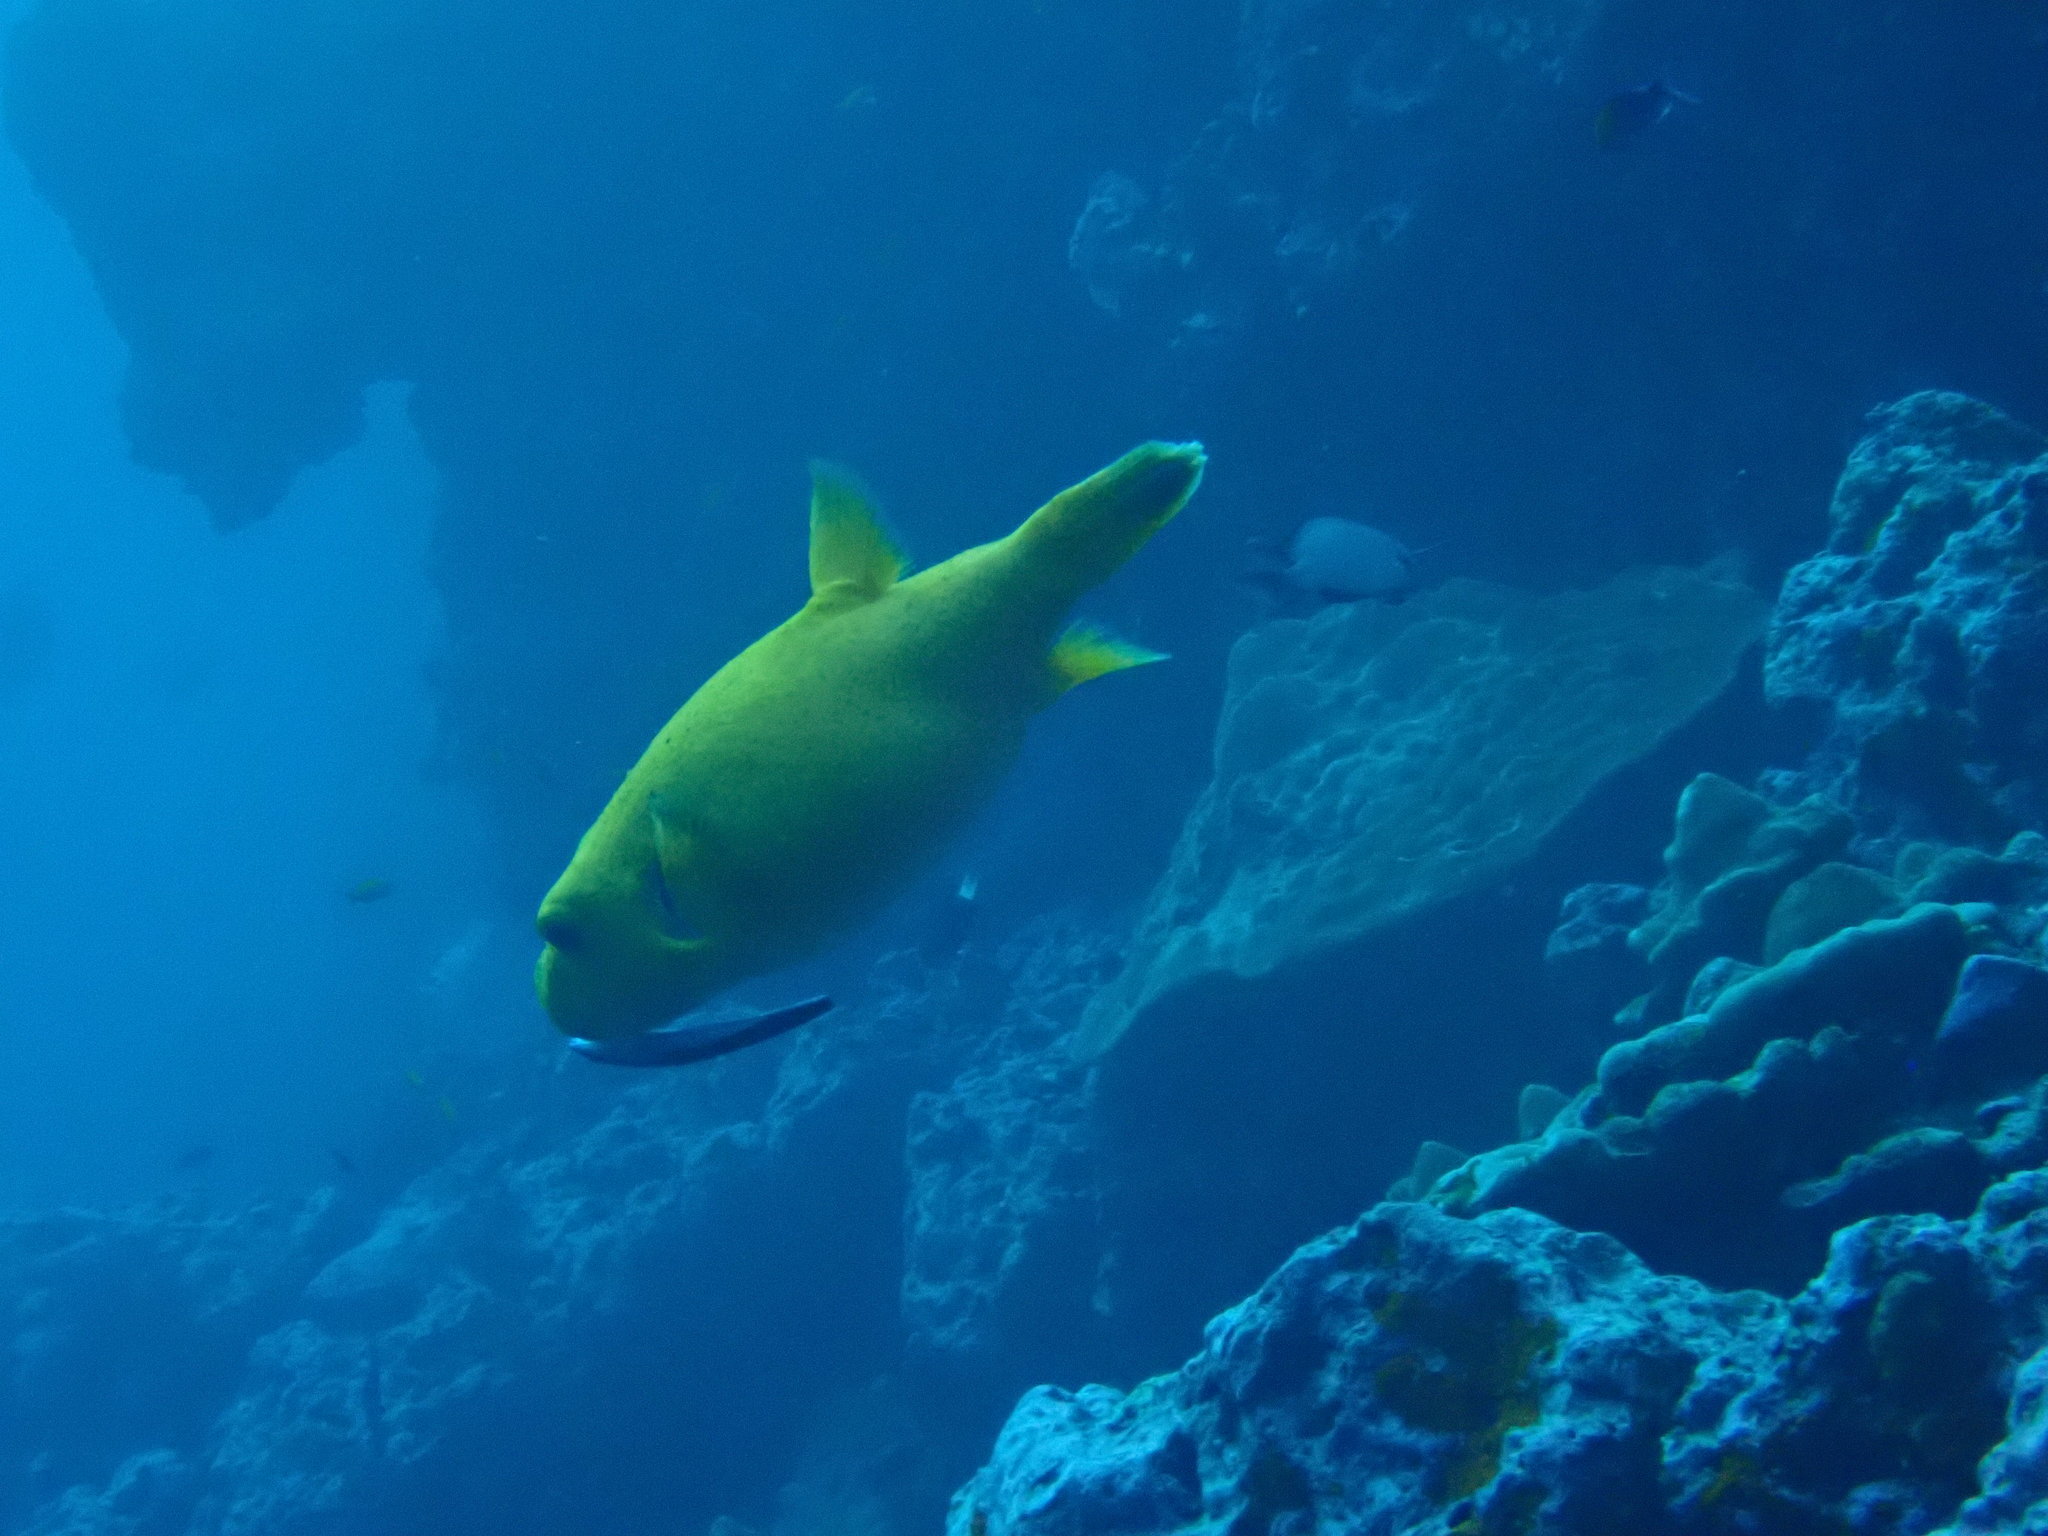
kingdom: Animalia
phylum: Chordata
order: Tetraodontiformes
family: Tetraodontidae
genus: Arothron
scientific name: Arothron meleagris
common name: Guinea-fowl pufferfish
